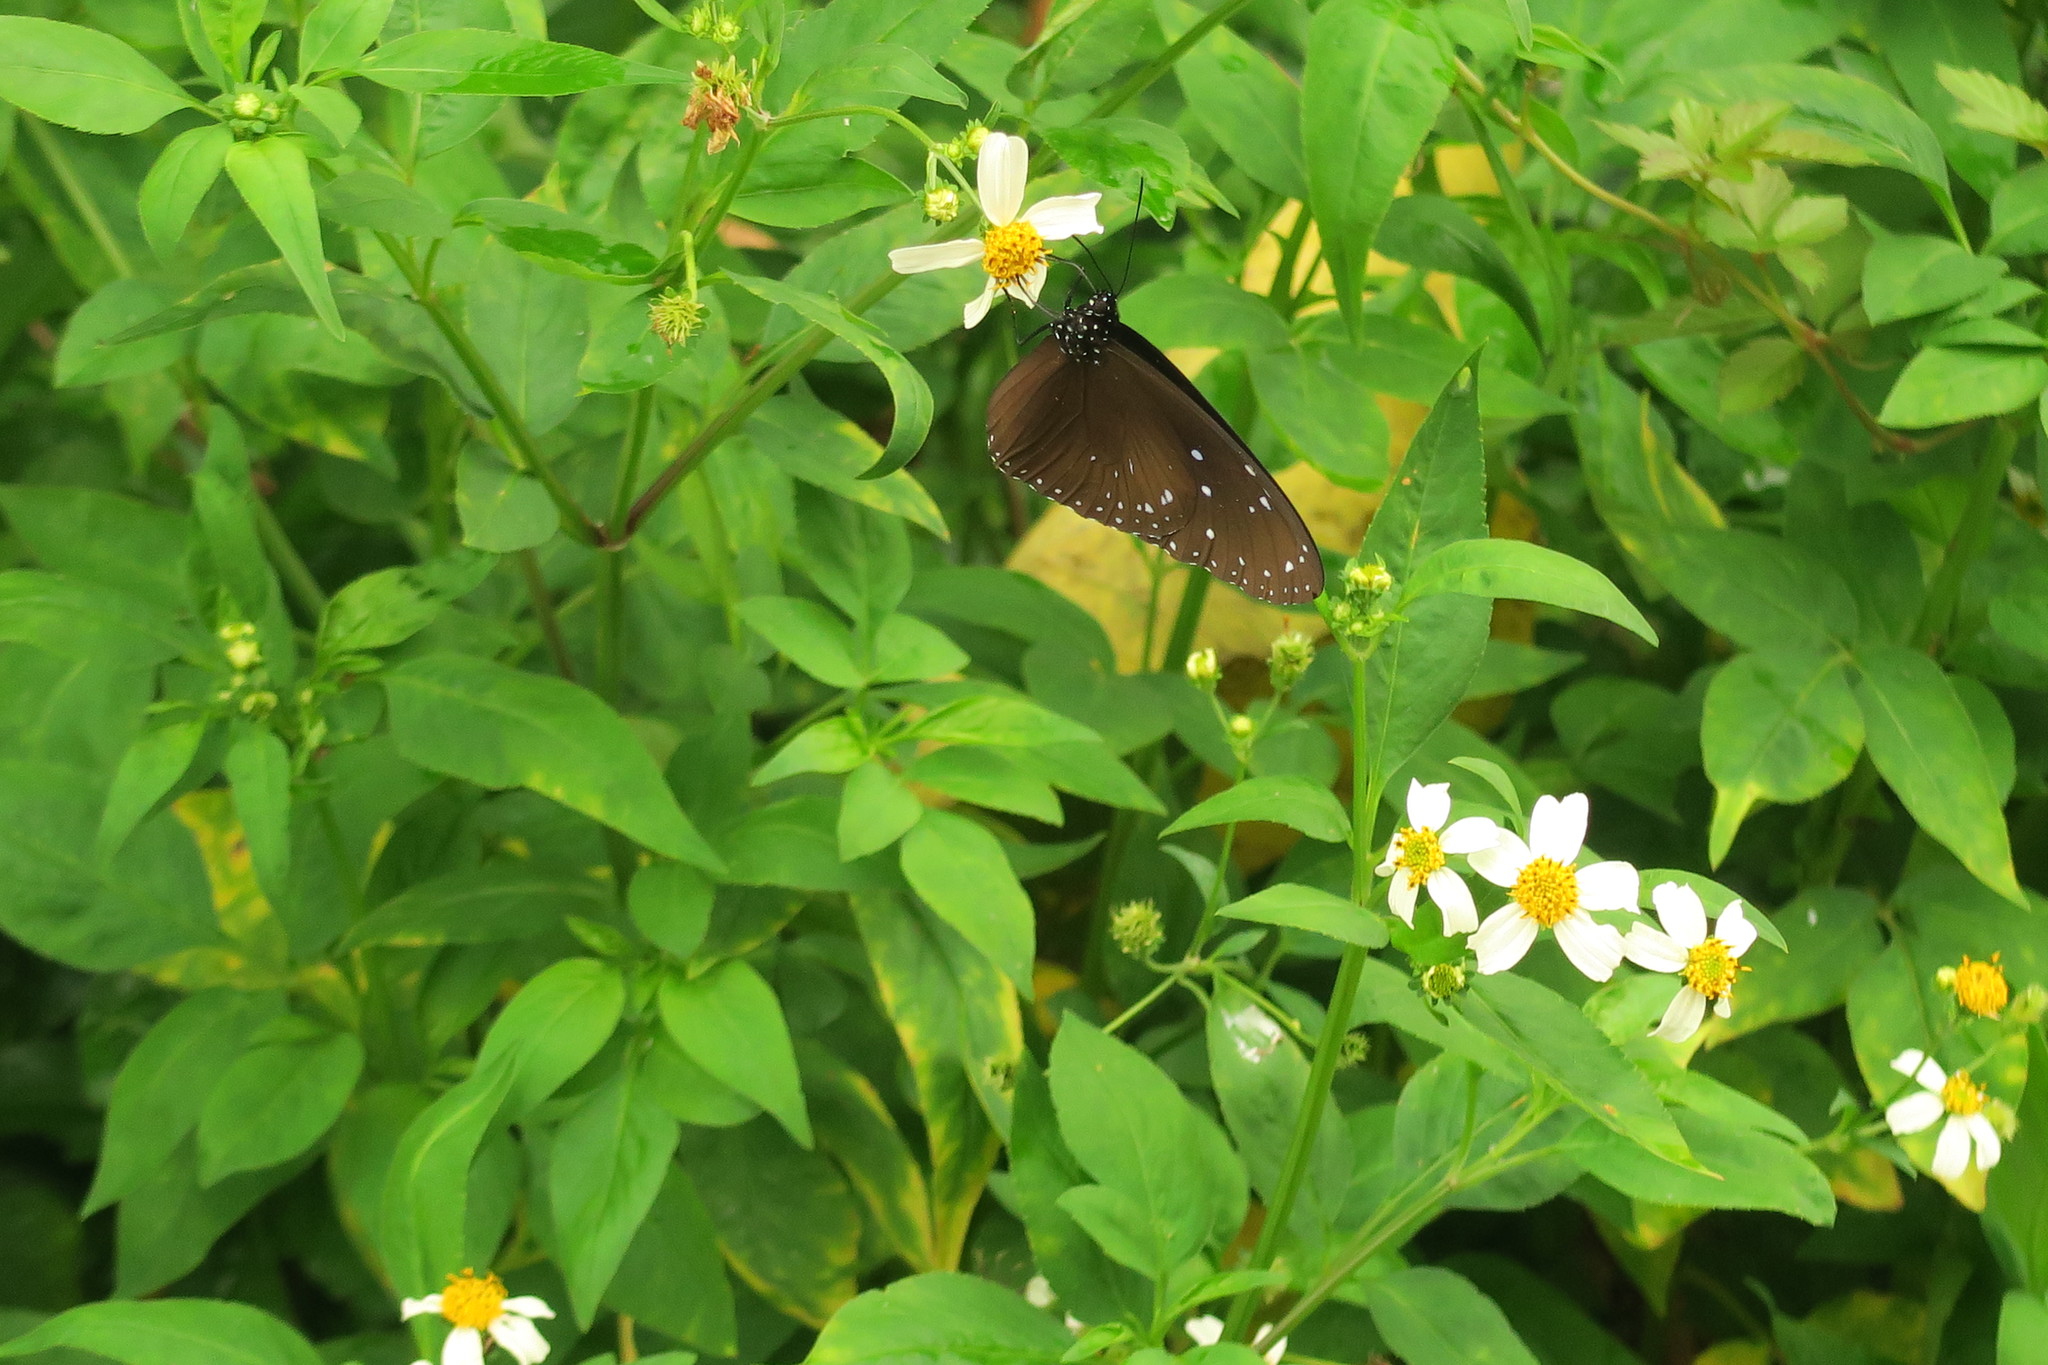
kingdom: Animalia
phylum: Arthropoda
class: Insecta
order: Lepidoptera
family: Nymphalidae
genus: Euploea
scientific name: Euploea mulciber
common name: Striped blue crow butterfly
